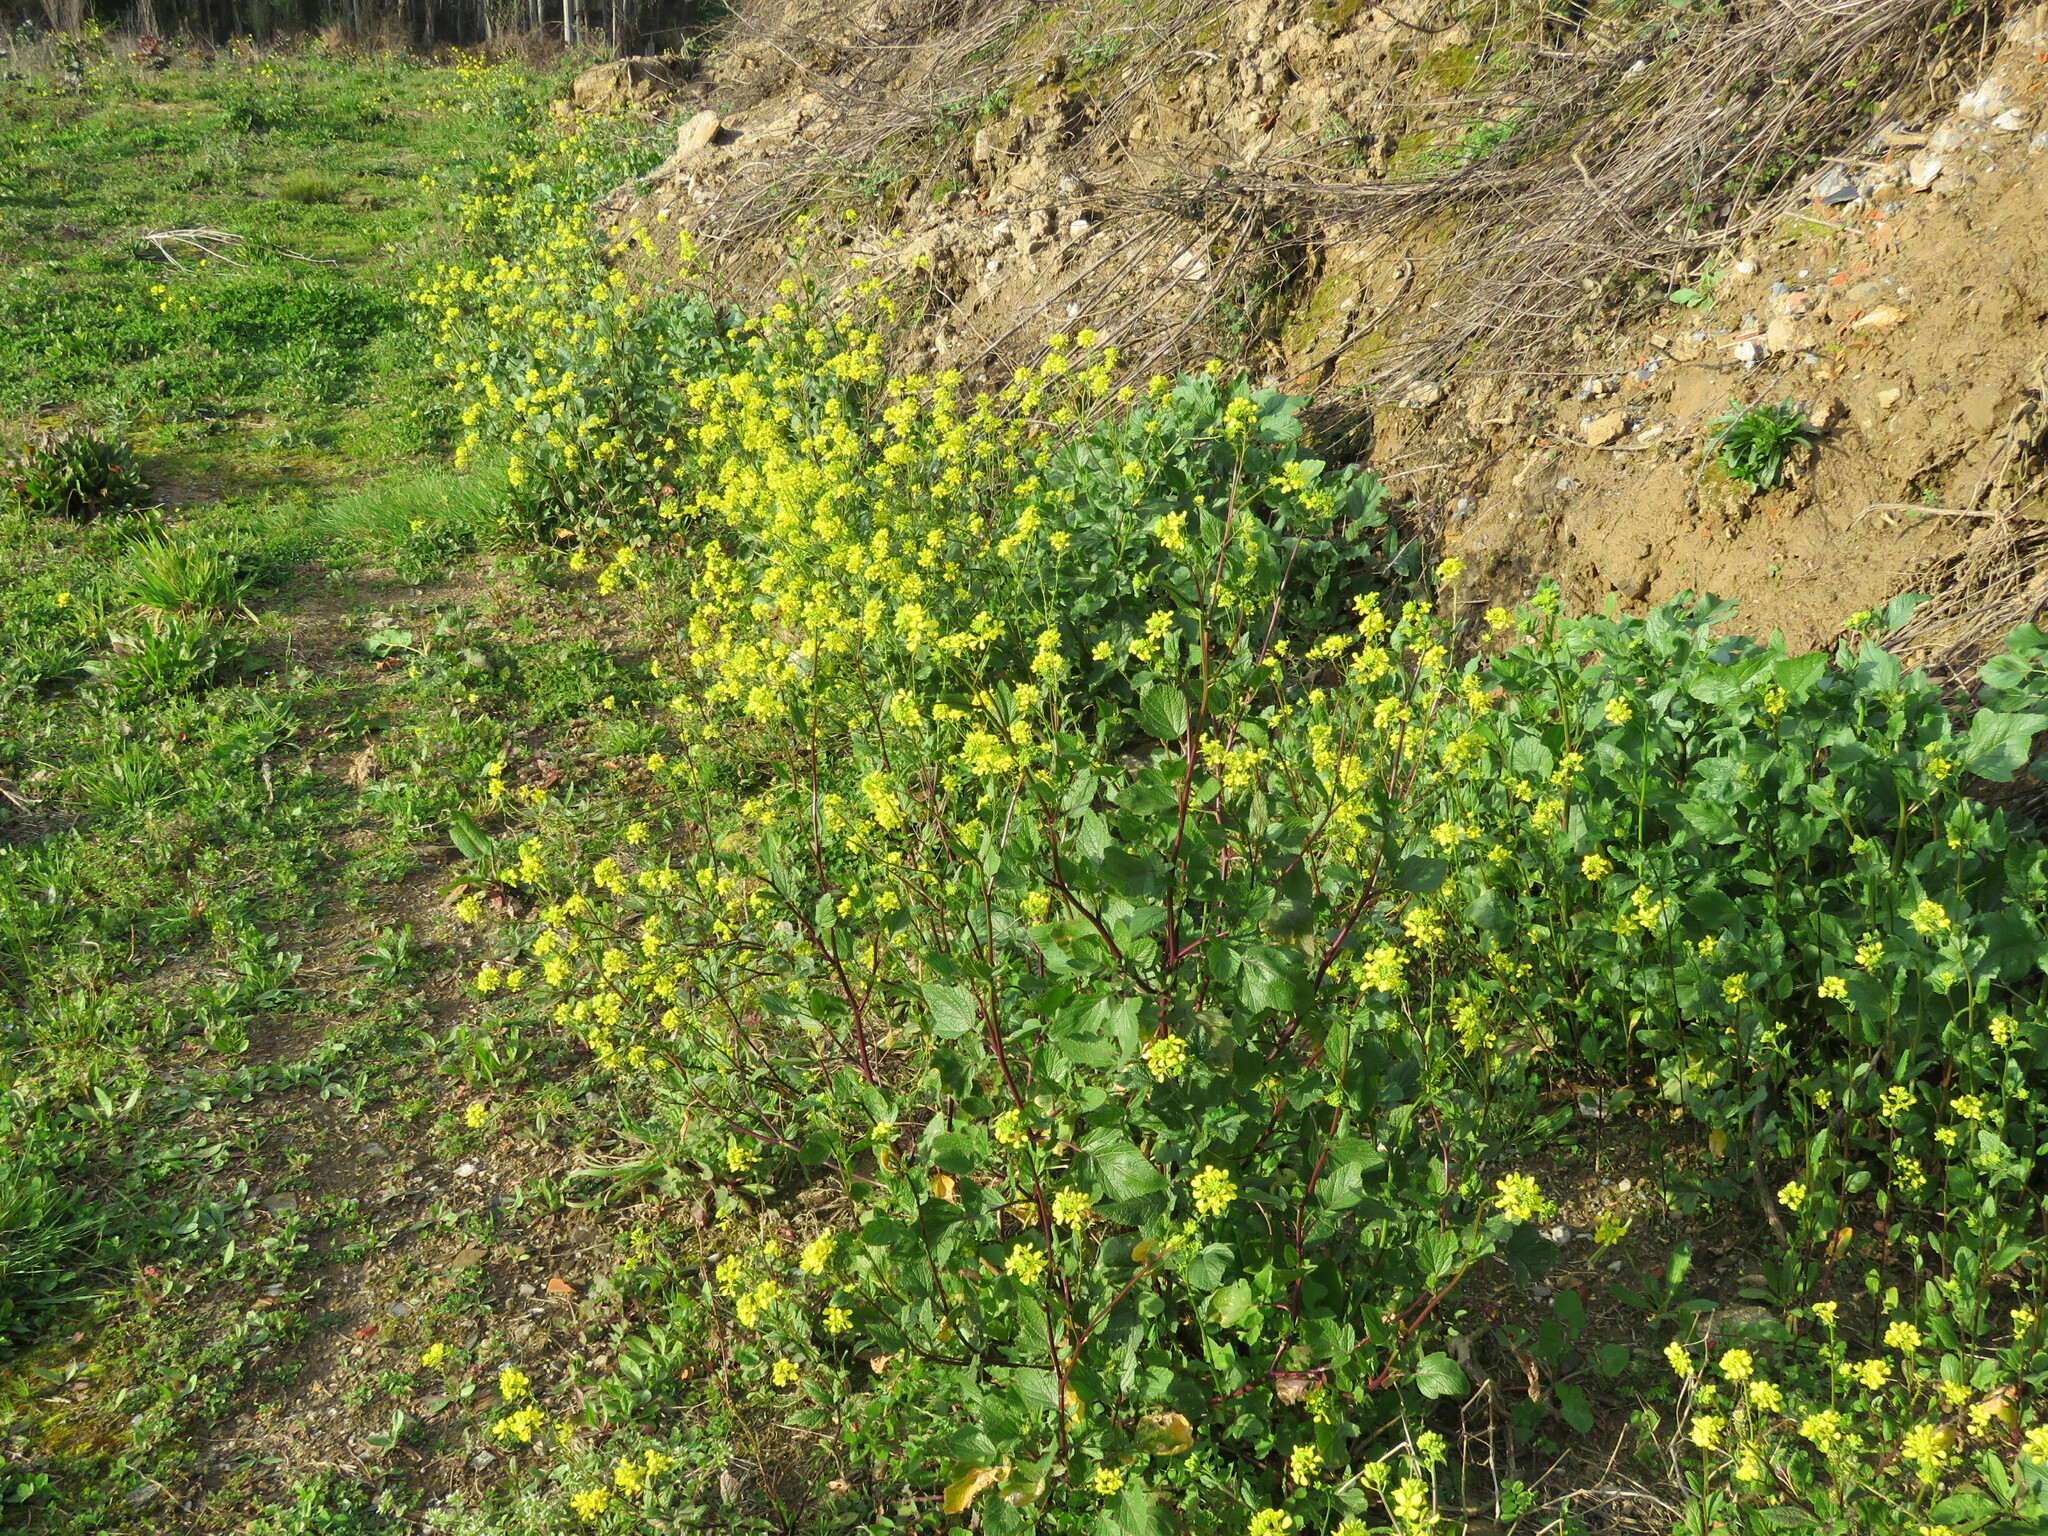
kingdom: Plantae
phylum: Tracheophyta
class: Magnoliopsida
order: Brassicales
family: Brassicaceae
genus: Sinapis
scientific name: Sinapis arvensis
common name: Charlock
